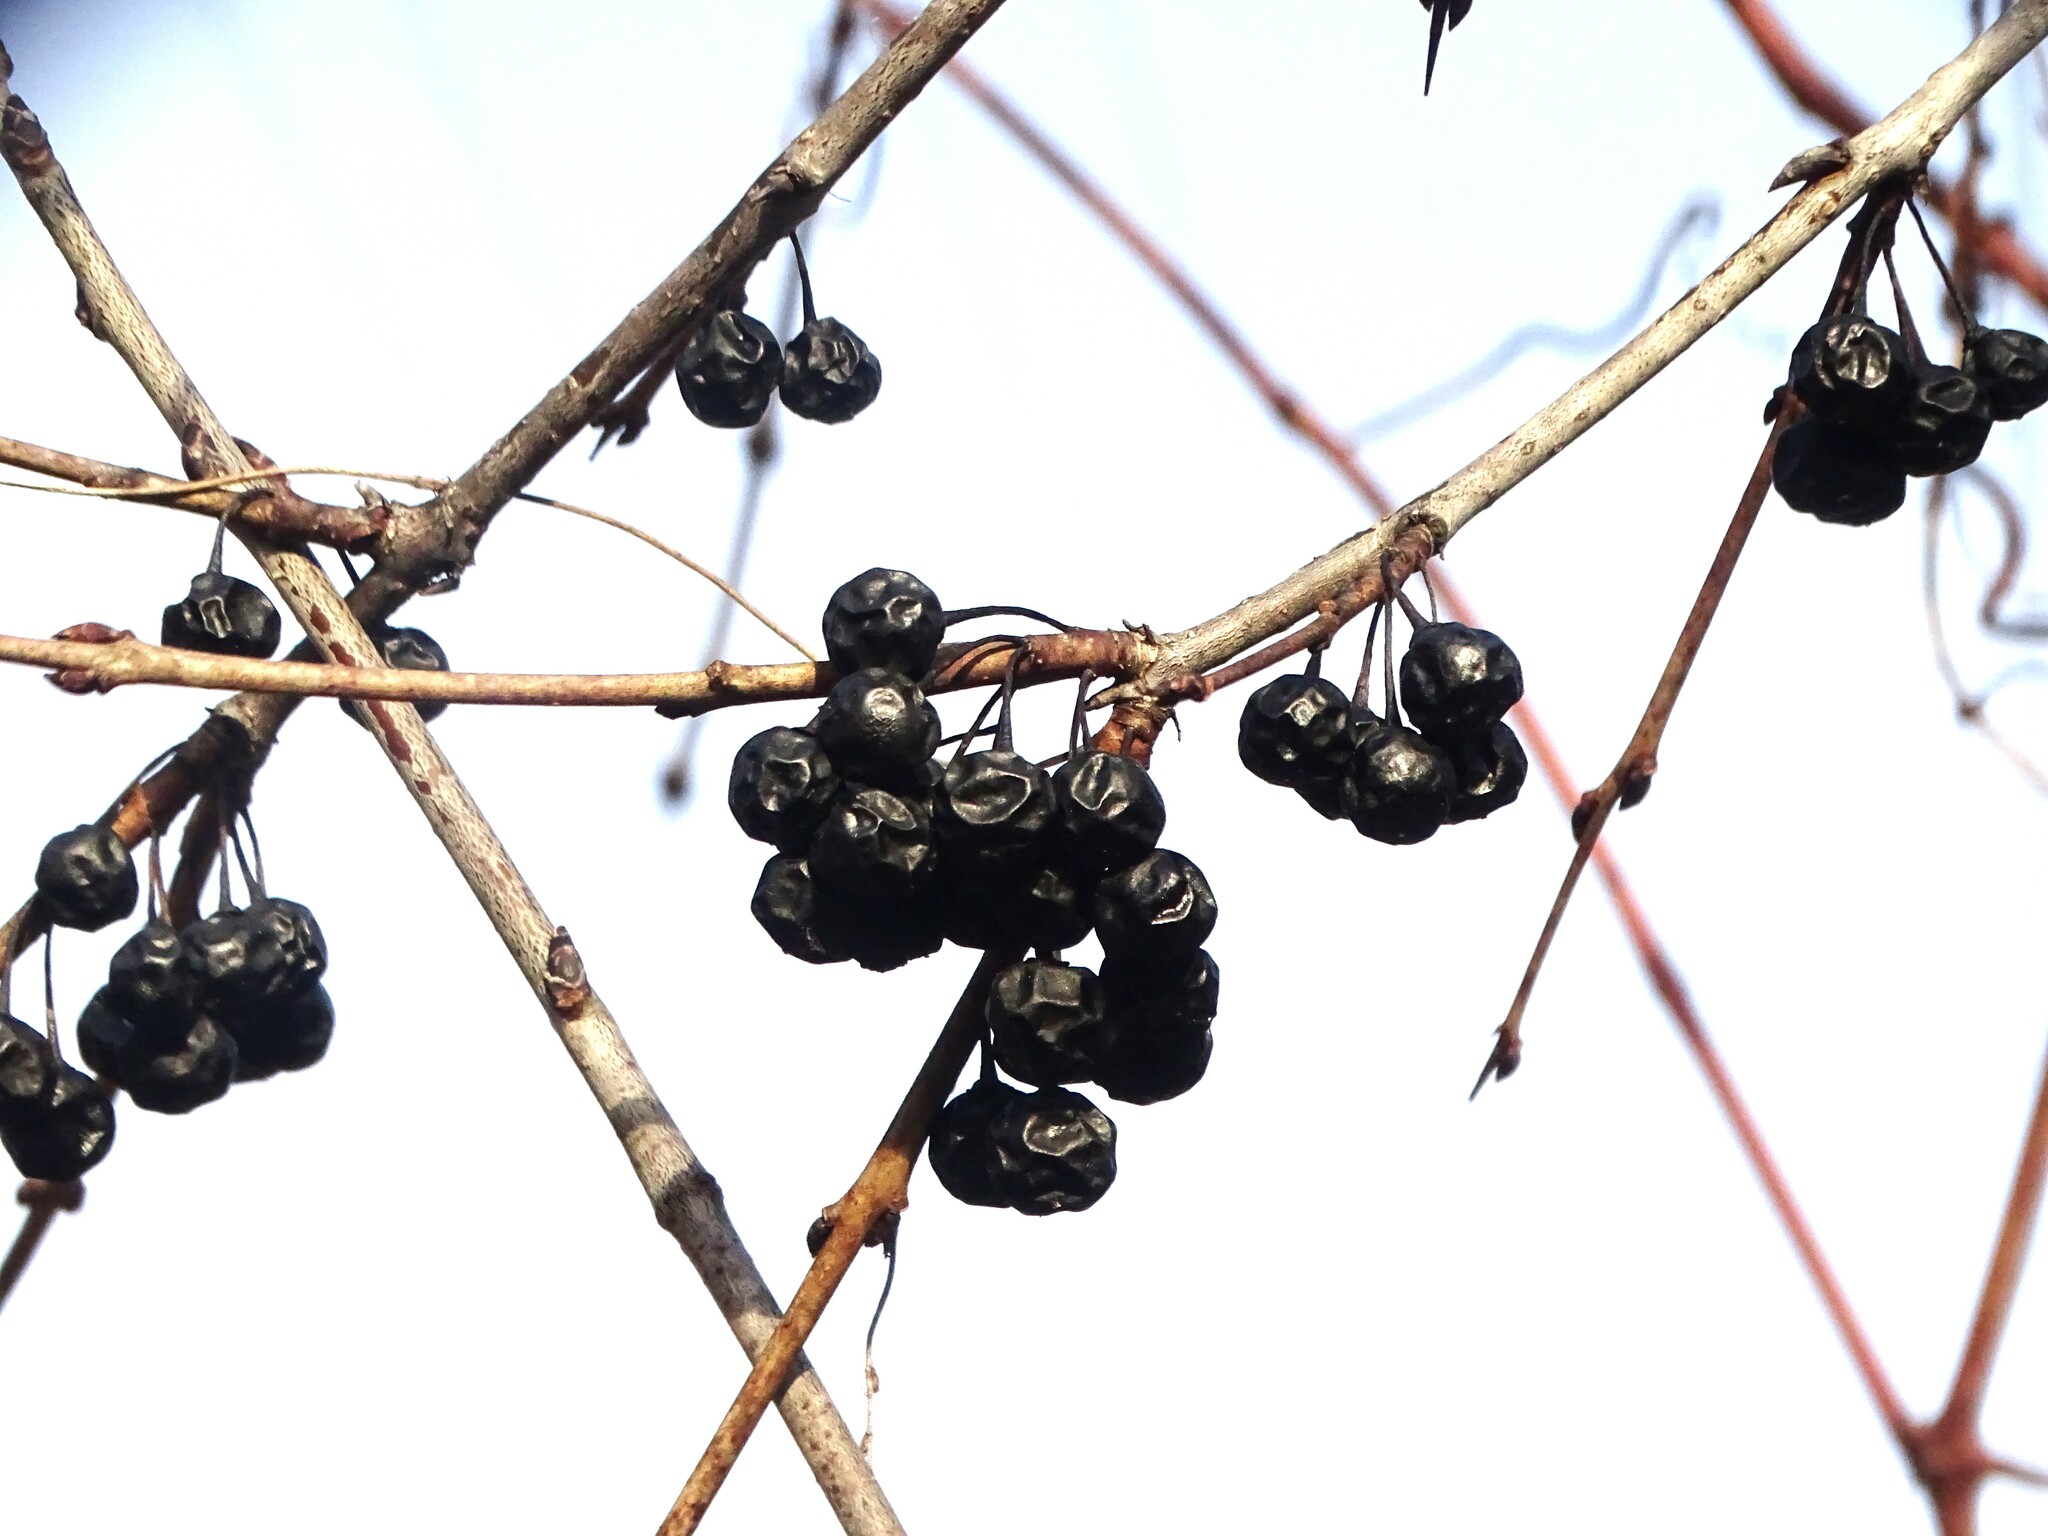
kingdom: Plantae
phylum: Tracheophyta
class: Magnoliopsida
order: Rosales
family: Rhamnaceae
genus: Rhamnus
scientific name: Rhamnus cathartica
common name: Common buckthorn
